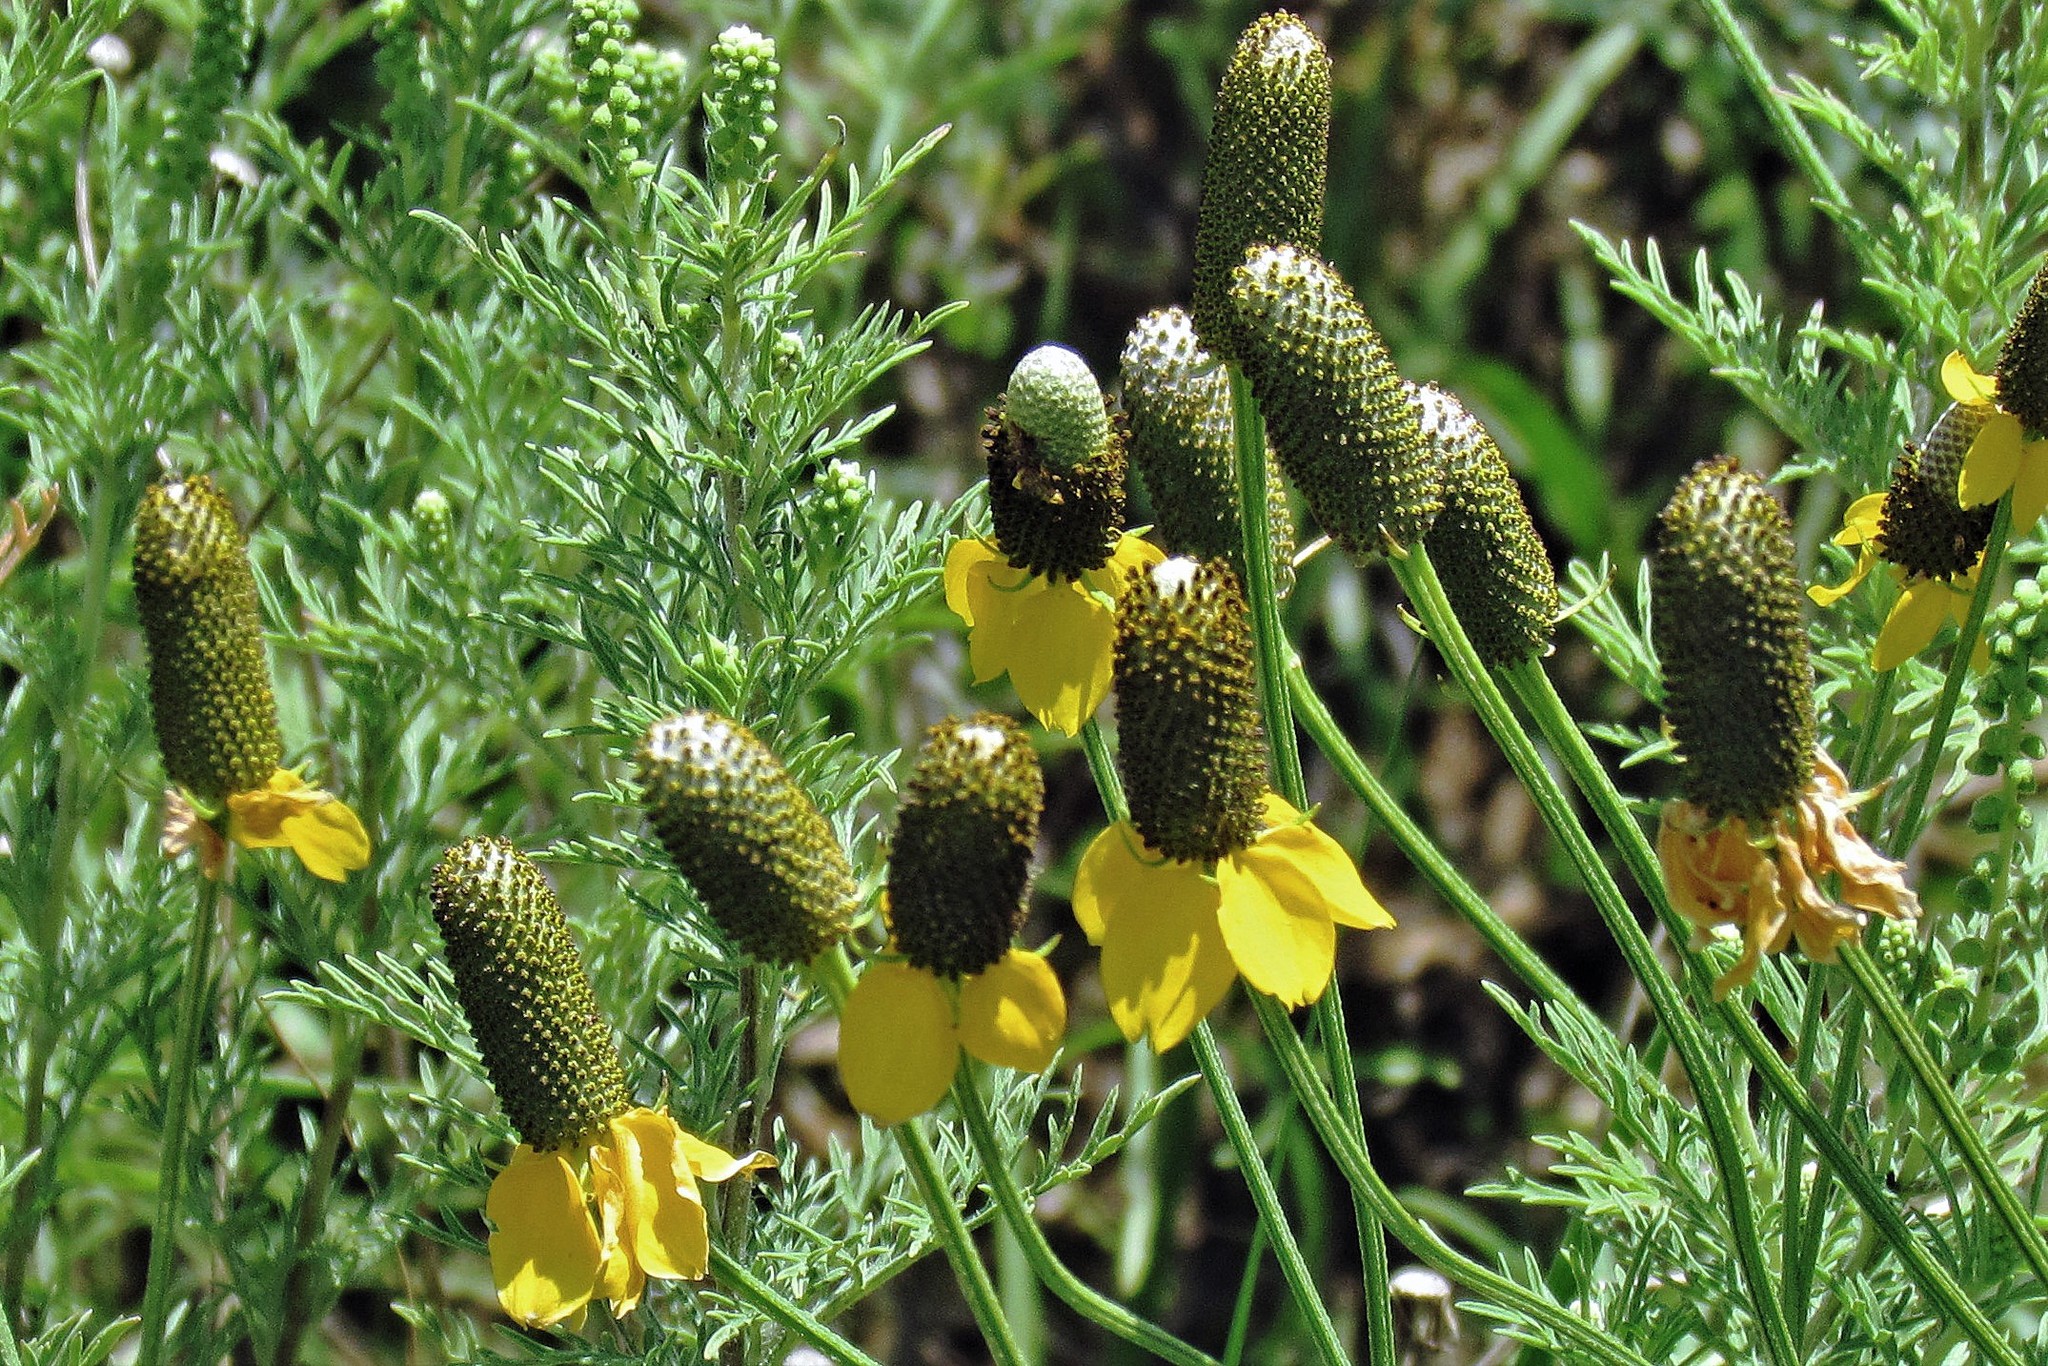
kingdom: Plantae
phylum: Tracheophyta
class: Magnoliopsida
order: Asterales
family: Asteraceae
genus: Ratibida
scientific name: Ratibida columnifera
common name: Prairie coneflower
